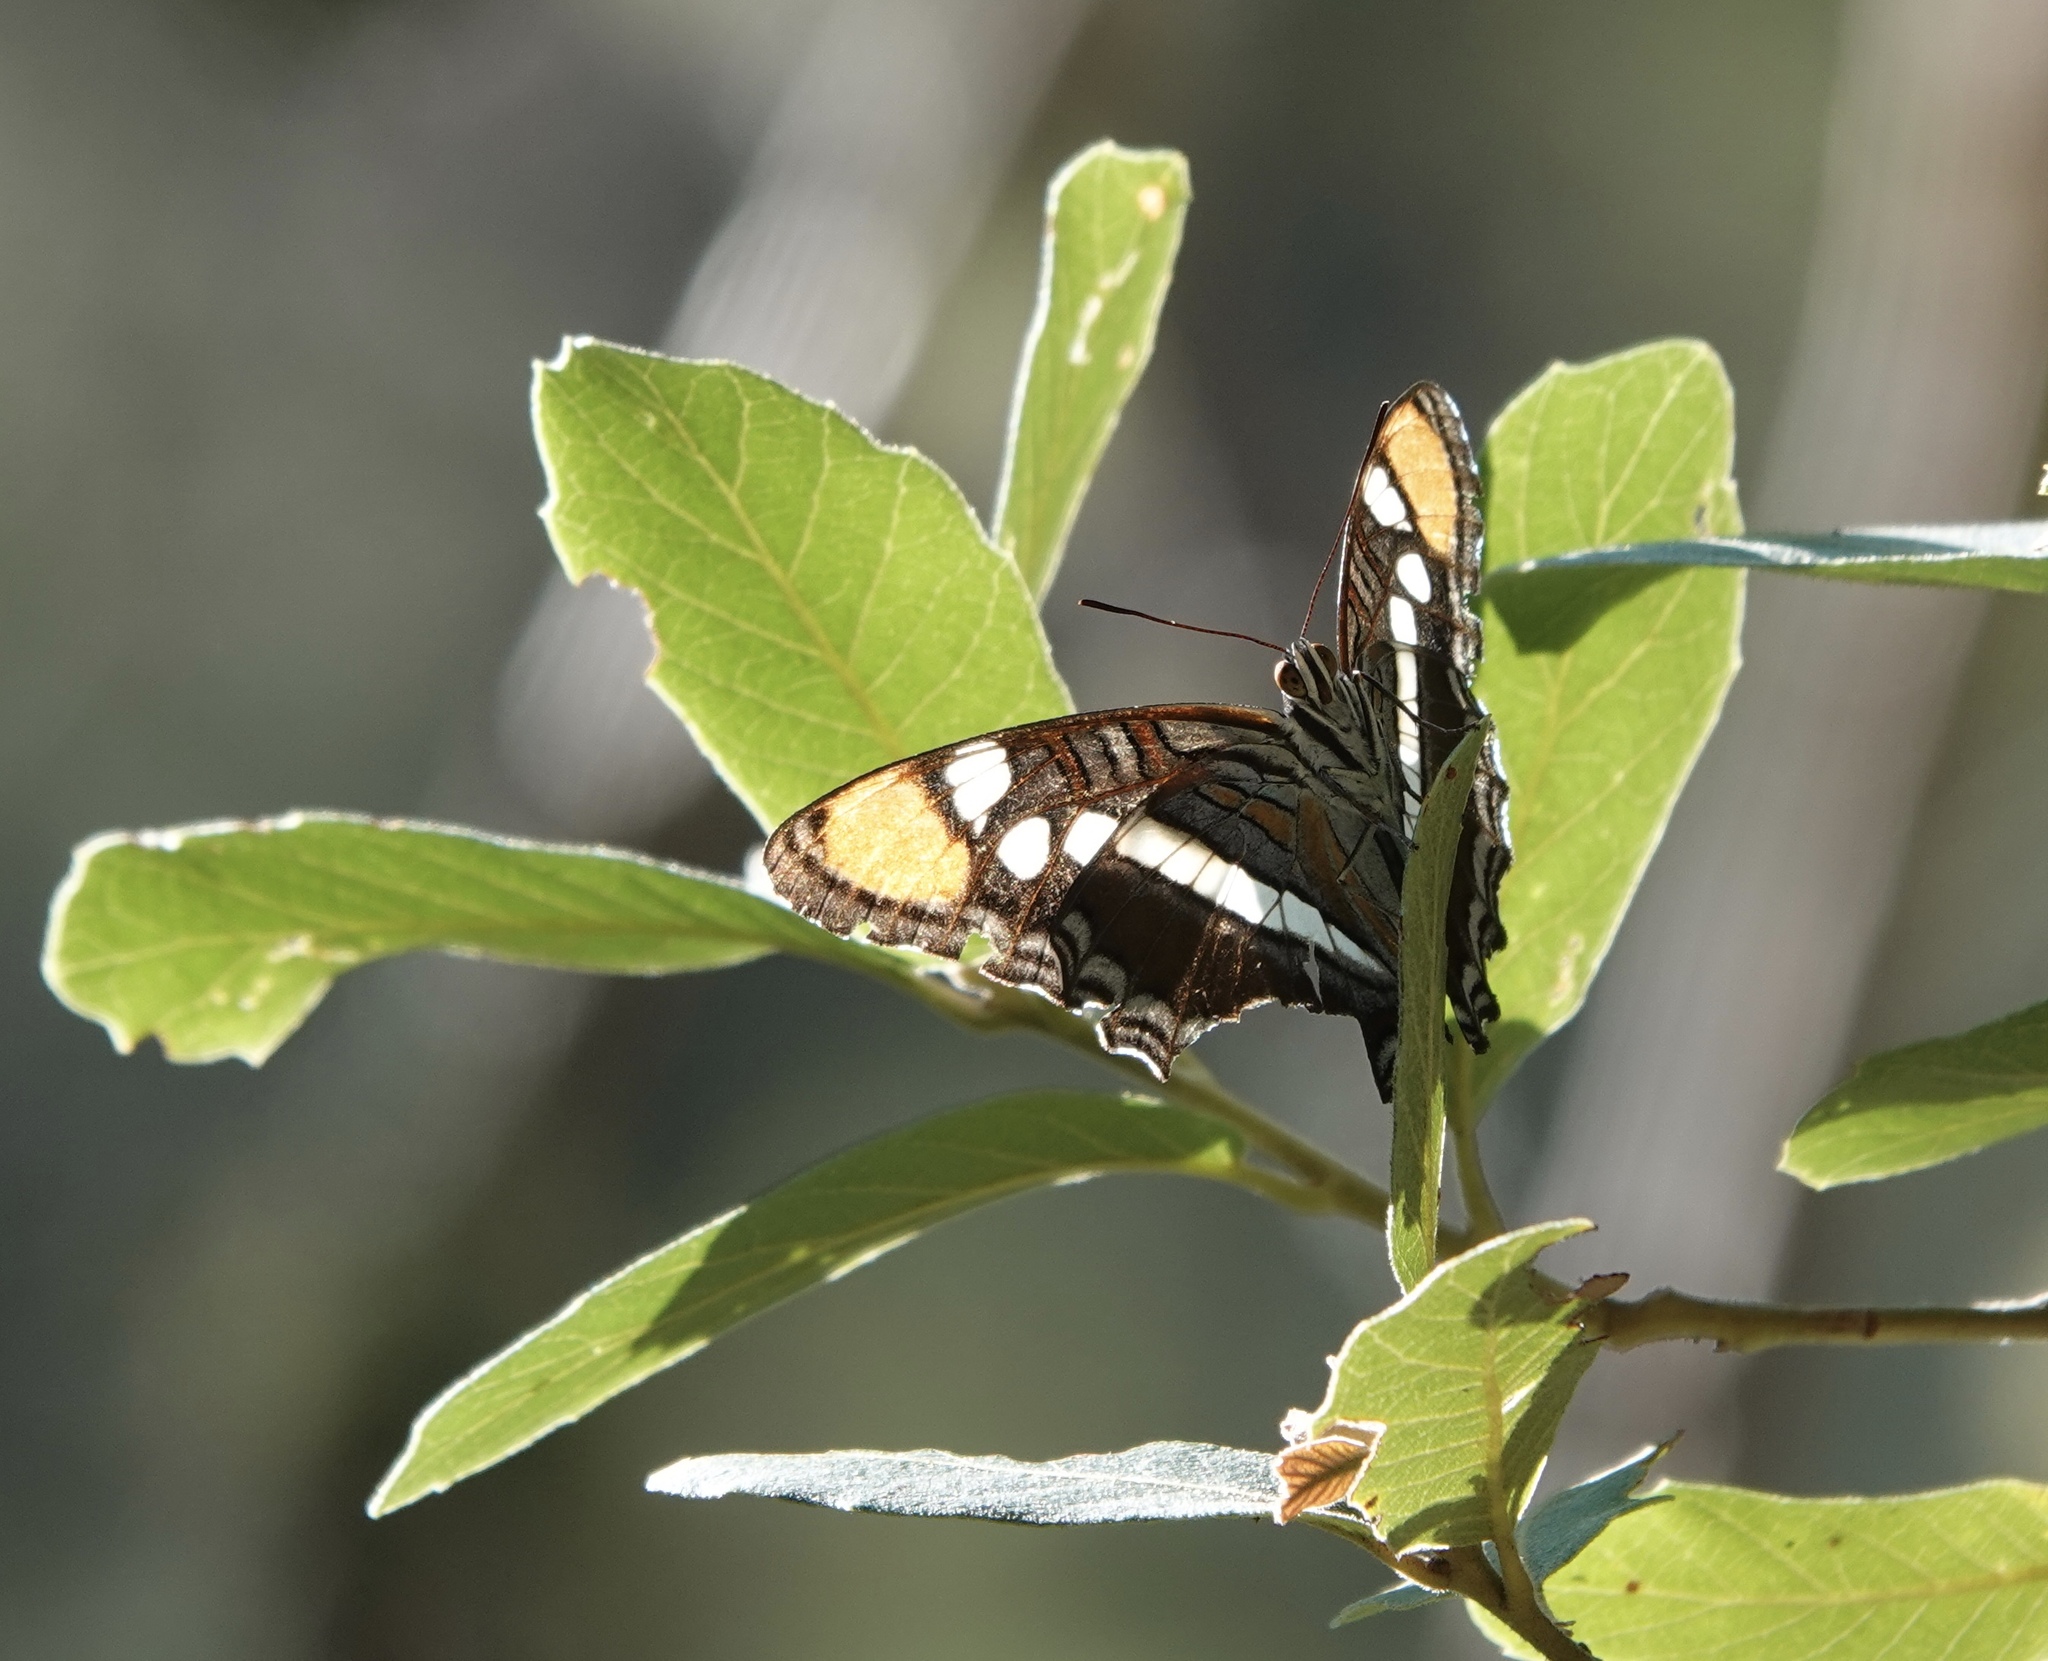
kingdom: Animalia
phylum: Arthropoda
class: Insecta
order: Lepidoptera
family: Nymphalidae
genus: Limenitis
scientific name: Limenitis bredowii
